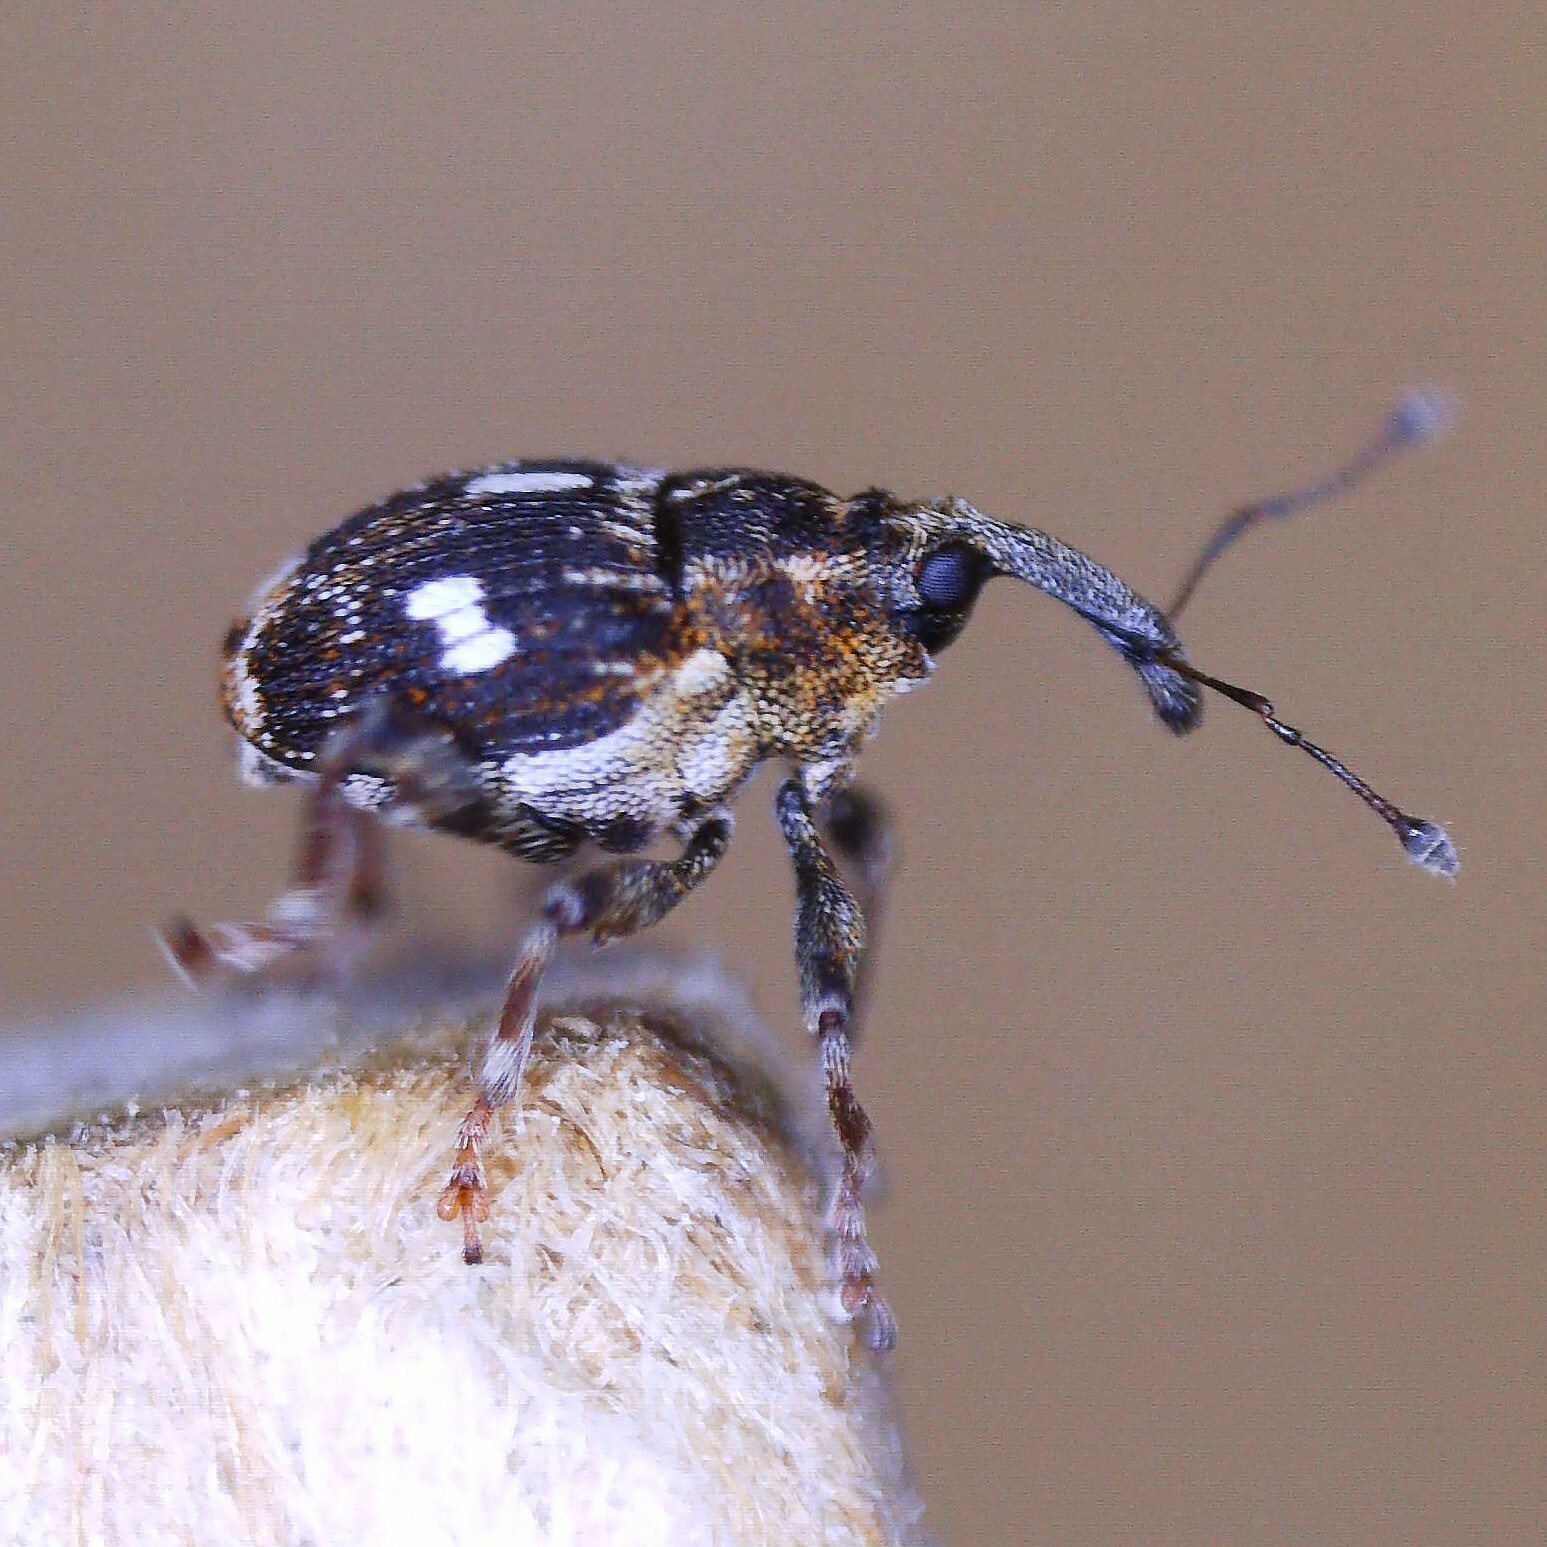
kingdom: Animalia
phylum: Arthropoda
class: Insecta
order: Coleoptera
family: Curculionidae
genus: Mogulones
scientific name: Mogulones asperifoliarum
